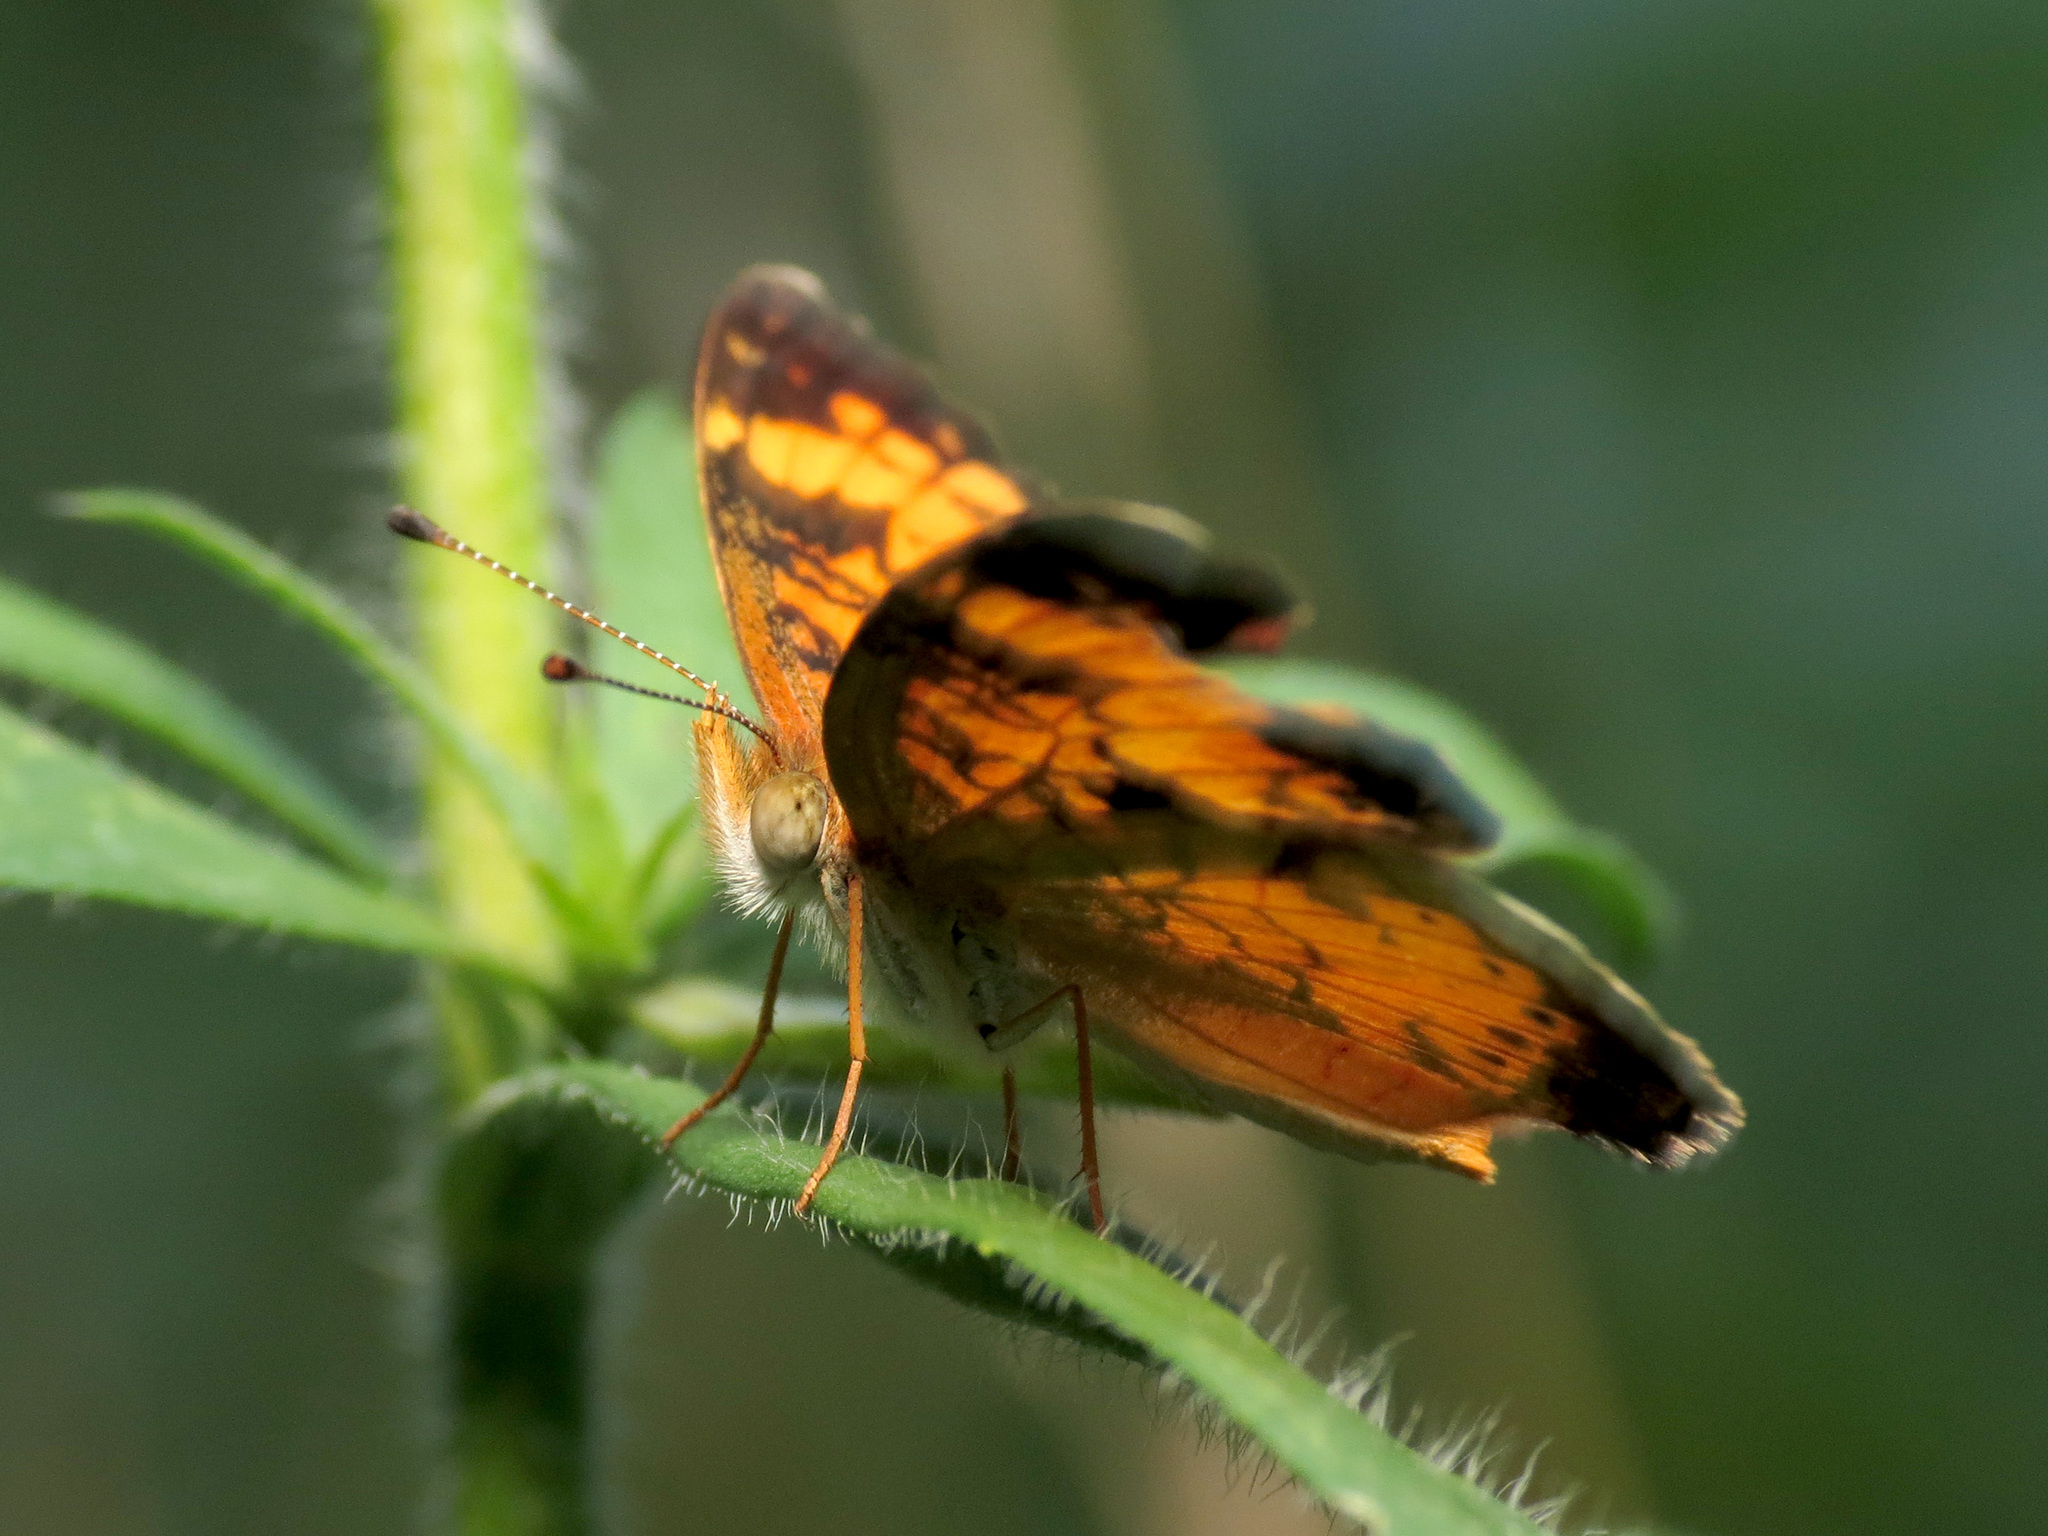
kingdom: Animalia
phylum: Arthropoda
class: Insecta
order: Lepidoptera
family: Nymphalidae
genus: Phyciodes
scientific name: Phyciodes tharos
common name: Pearl crescent
